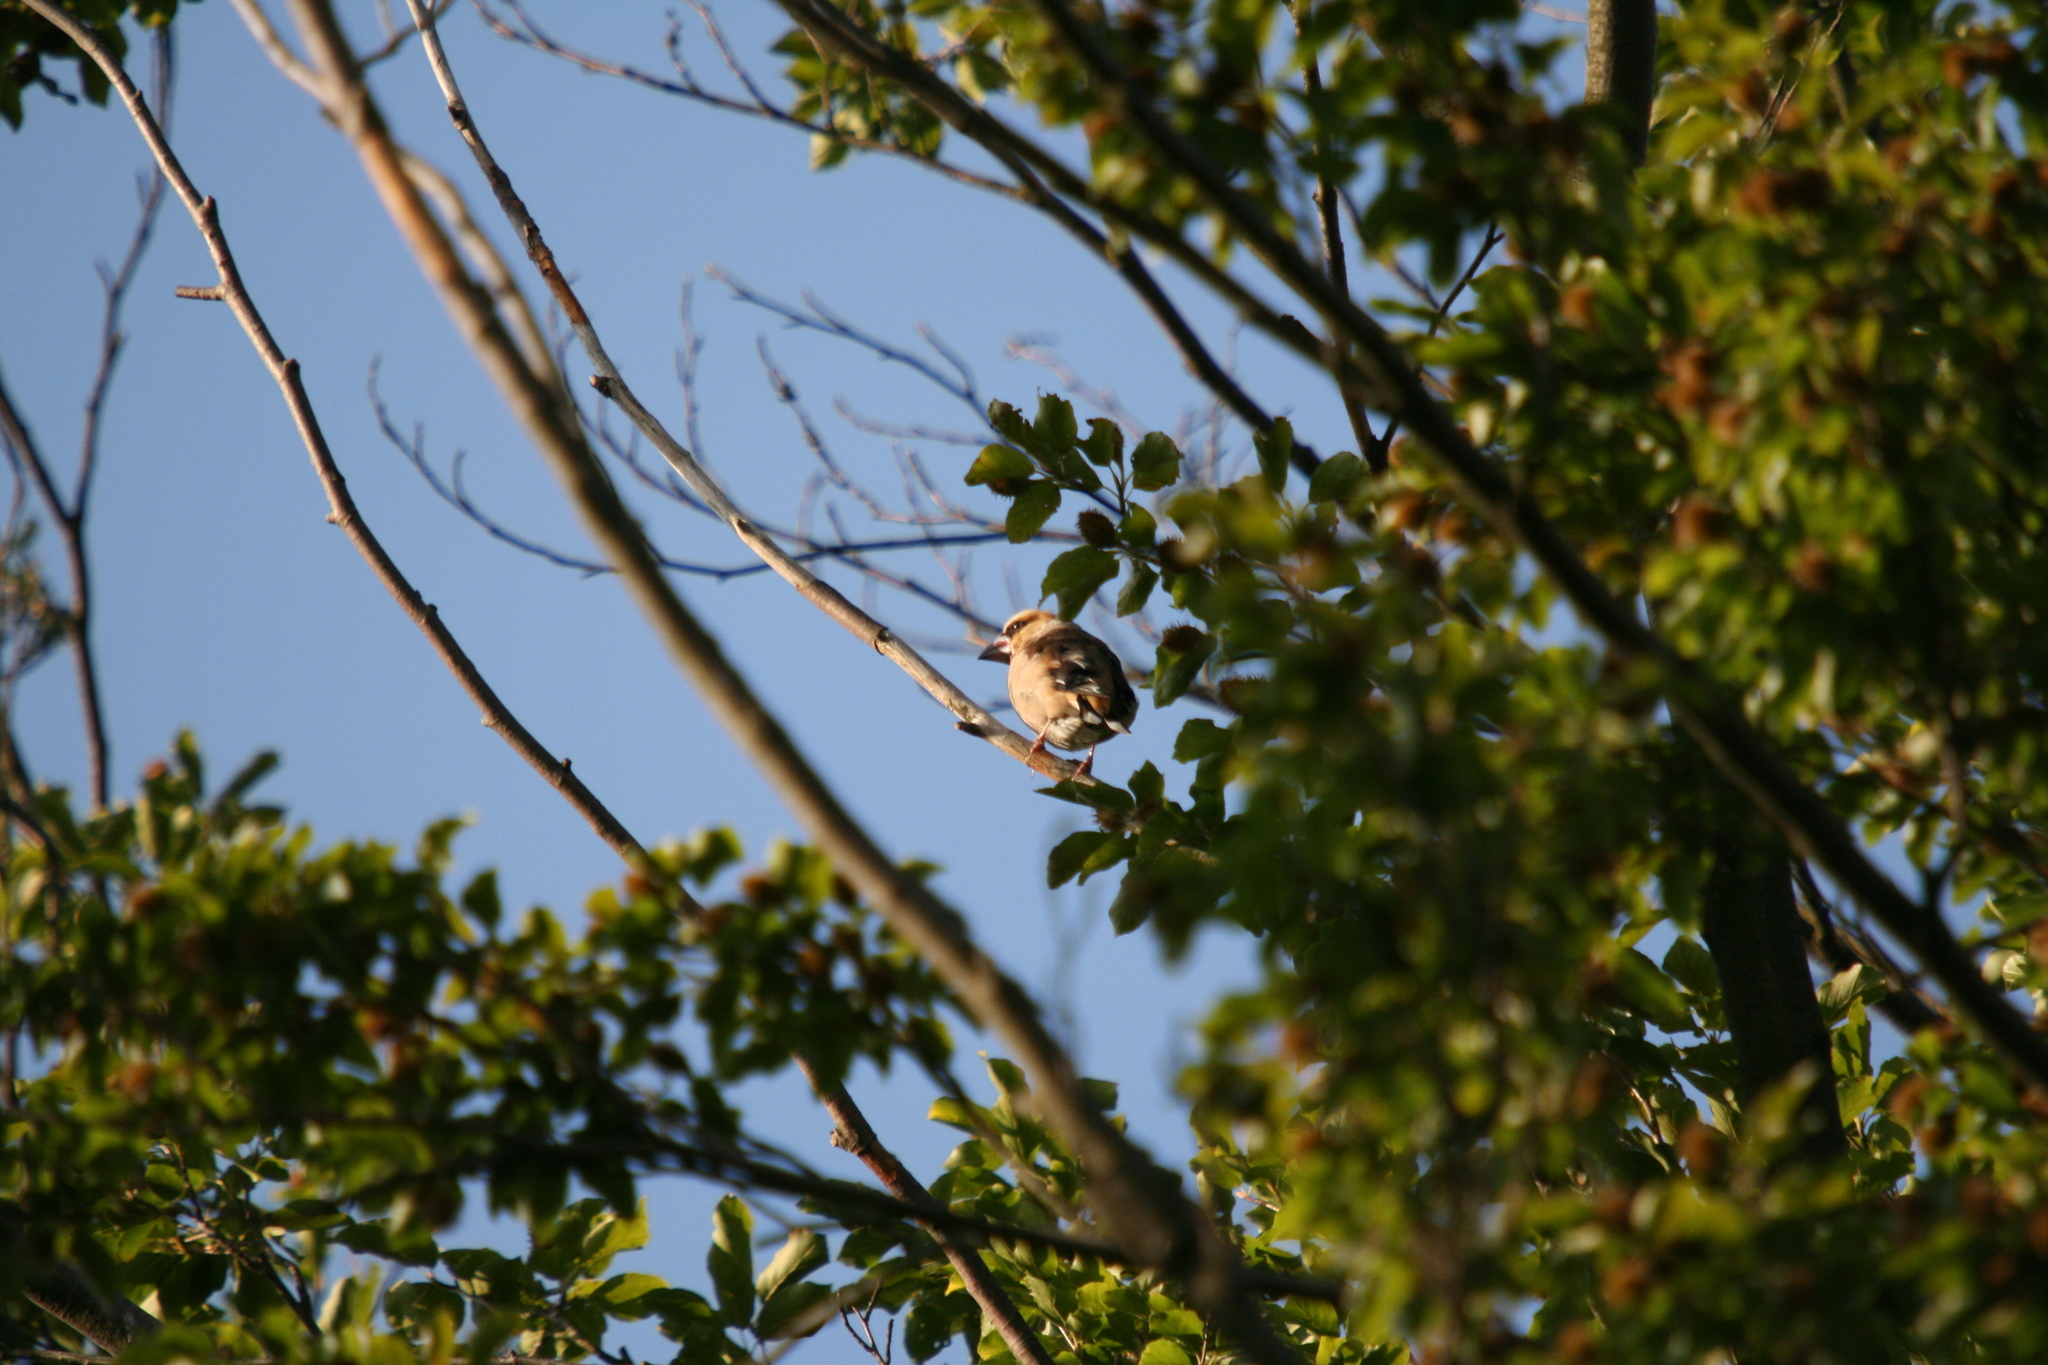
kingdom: Animalia
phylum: Chordata
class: Aves
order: Passeriformes
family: Fringillidae
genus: Coccothraustes
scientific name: Coccothraustes coccothraustes
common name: Hawfinch
